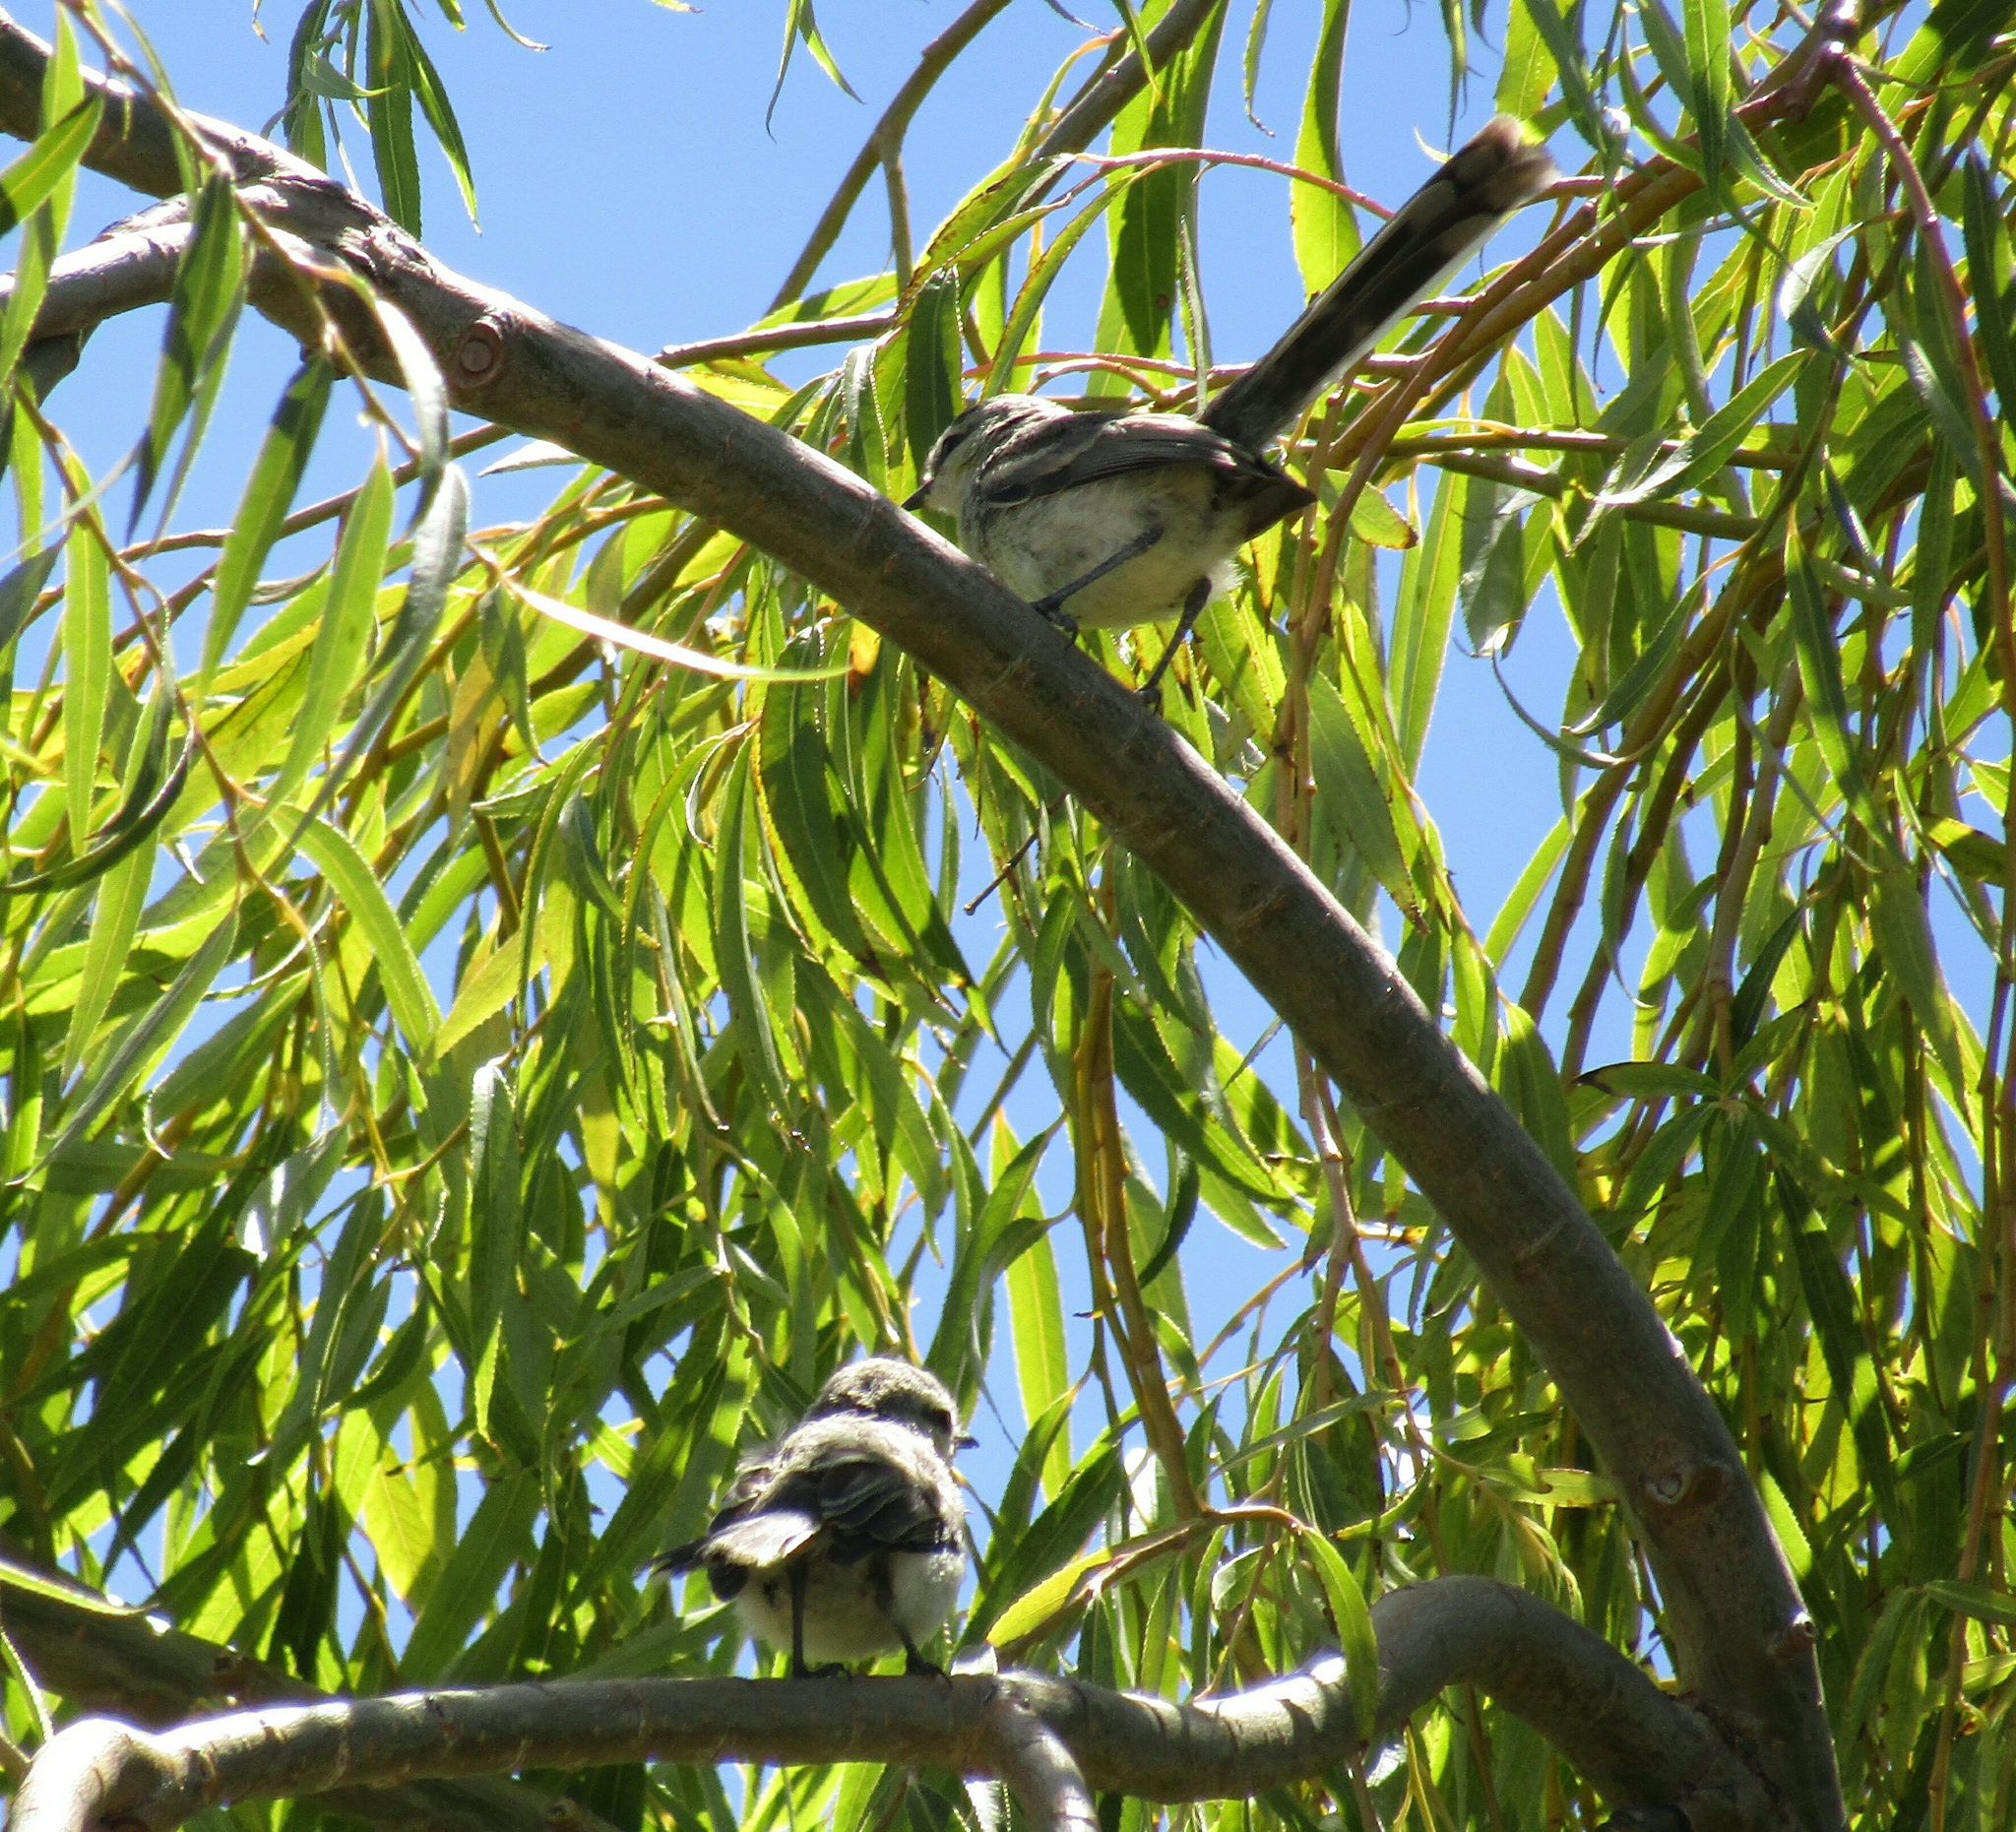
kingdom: Animalia
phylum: Chordata
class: Aves
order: Passeriformes
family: Tyrannidae
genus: Stigmatura
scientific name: Stigmatura budytoides
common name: Greater wagtail-tyrant
